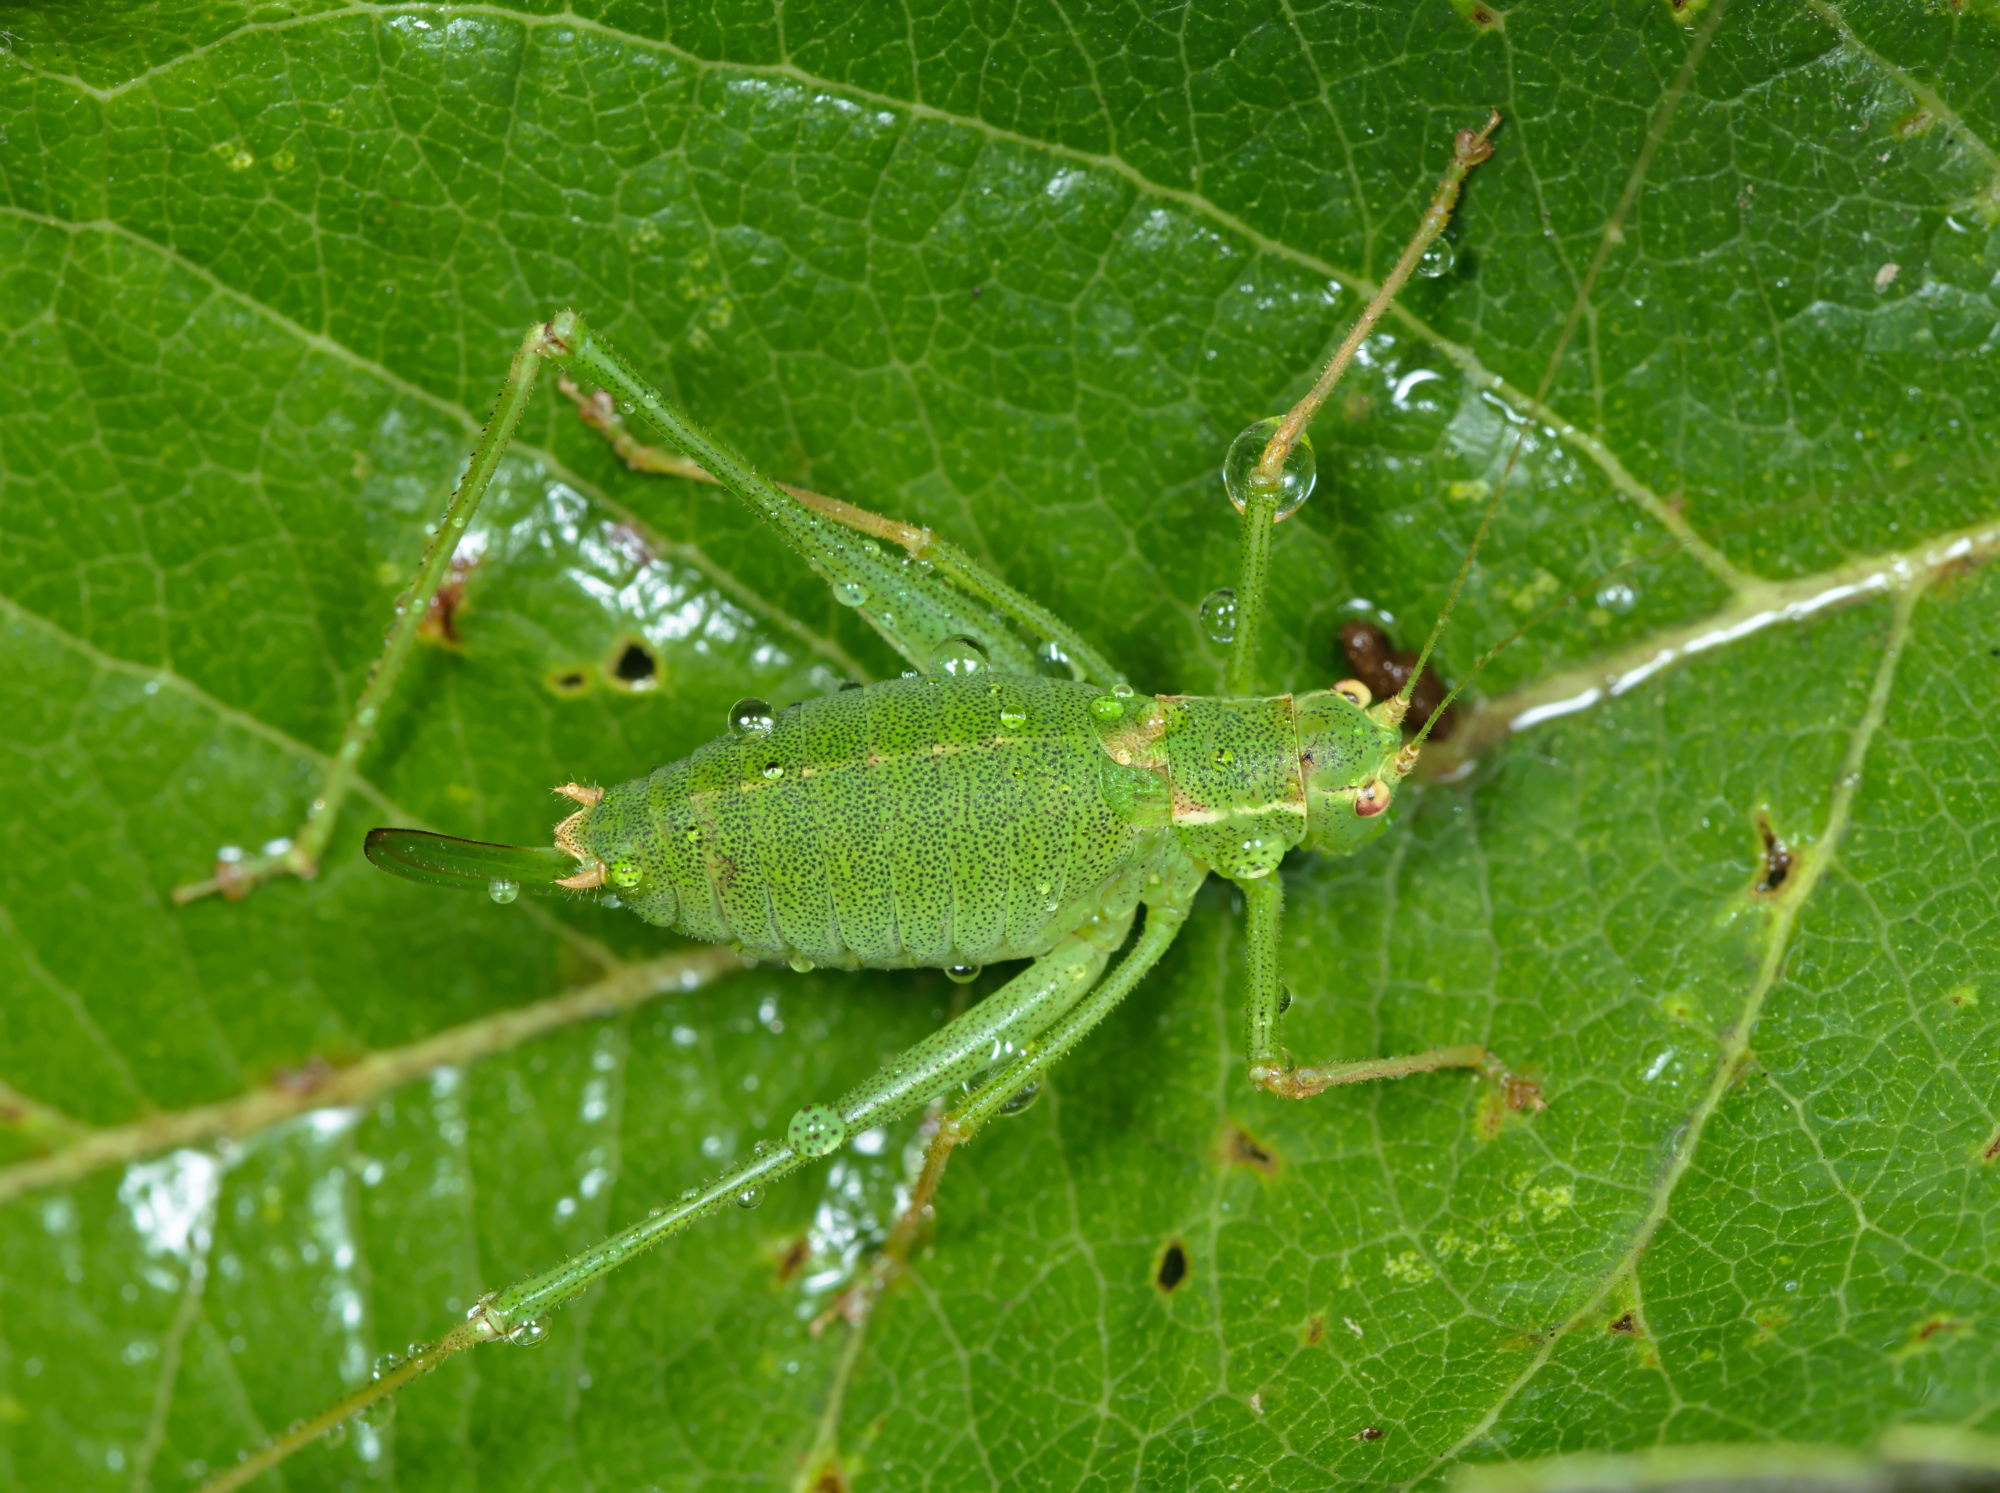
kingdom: Animalia
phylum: Arthropoda
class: Insecta
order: Orthoptera
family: Tettigoniidae
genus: Leptophyes
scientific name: Leptophyes punctatissima
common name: Speckled bush-cricket
